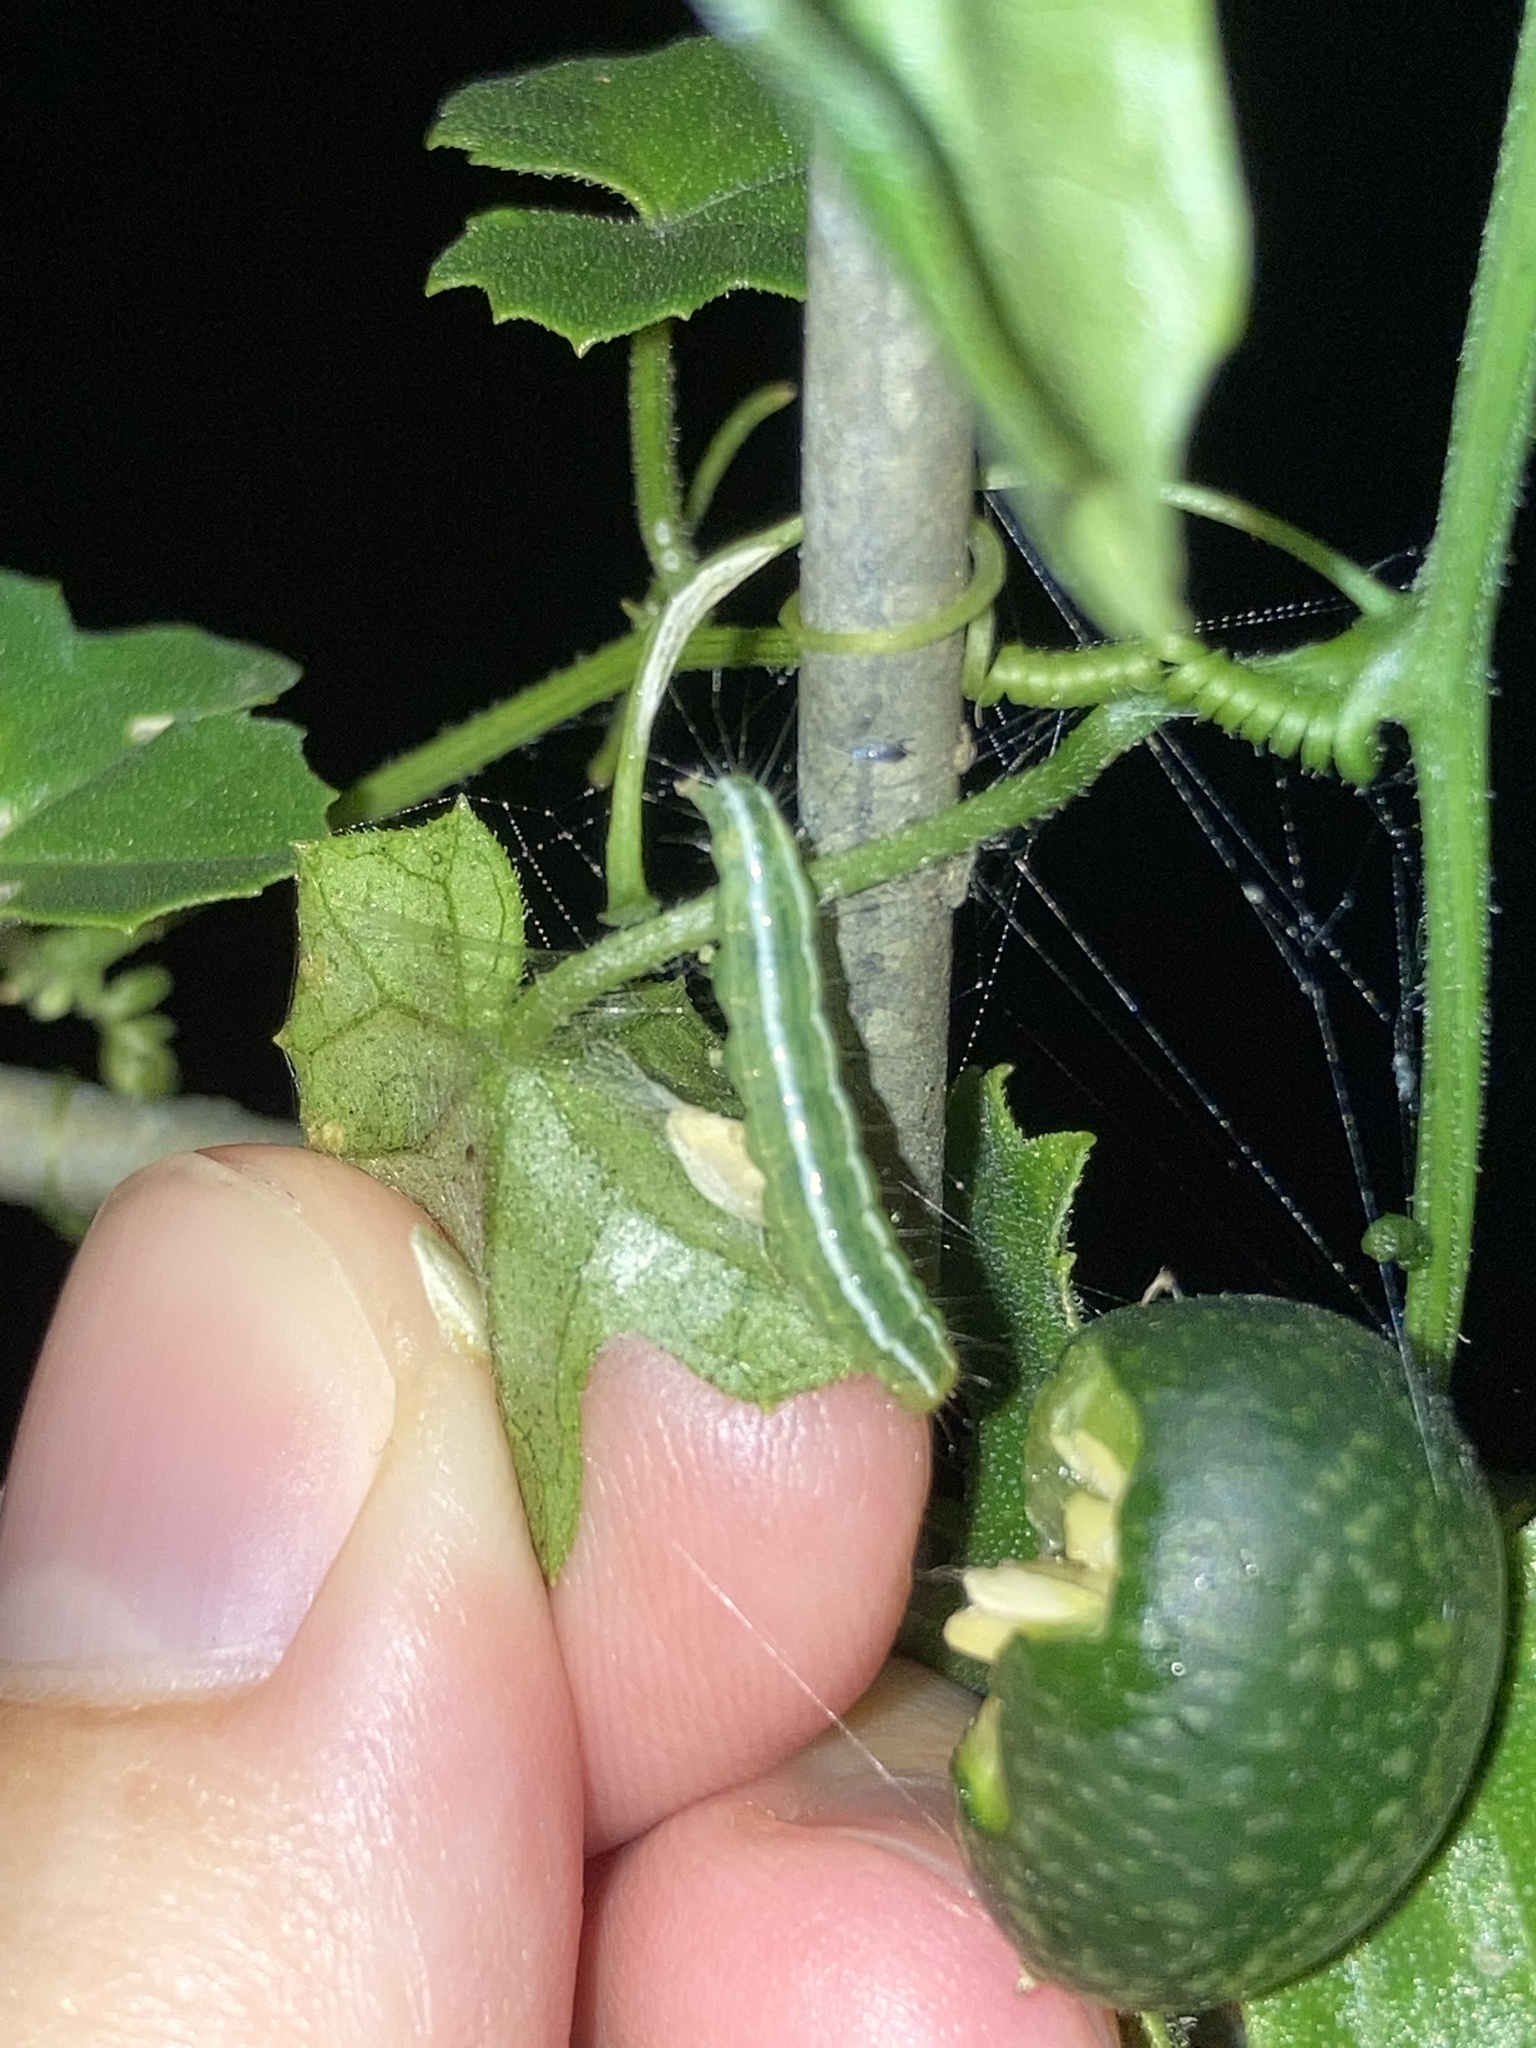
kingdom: Plantae
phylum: Tracheophyta
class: Magnoliopsida
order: Cucurbitales
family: Cucurbitaceae
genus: Melothria
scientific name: Melothria pendula
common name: Creeping-cucumber
